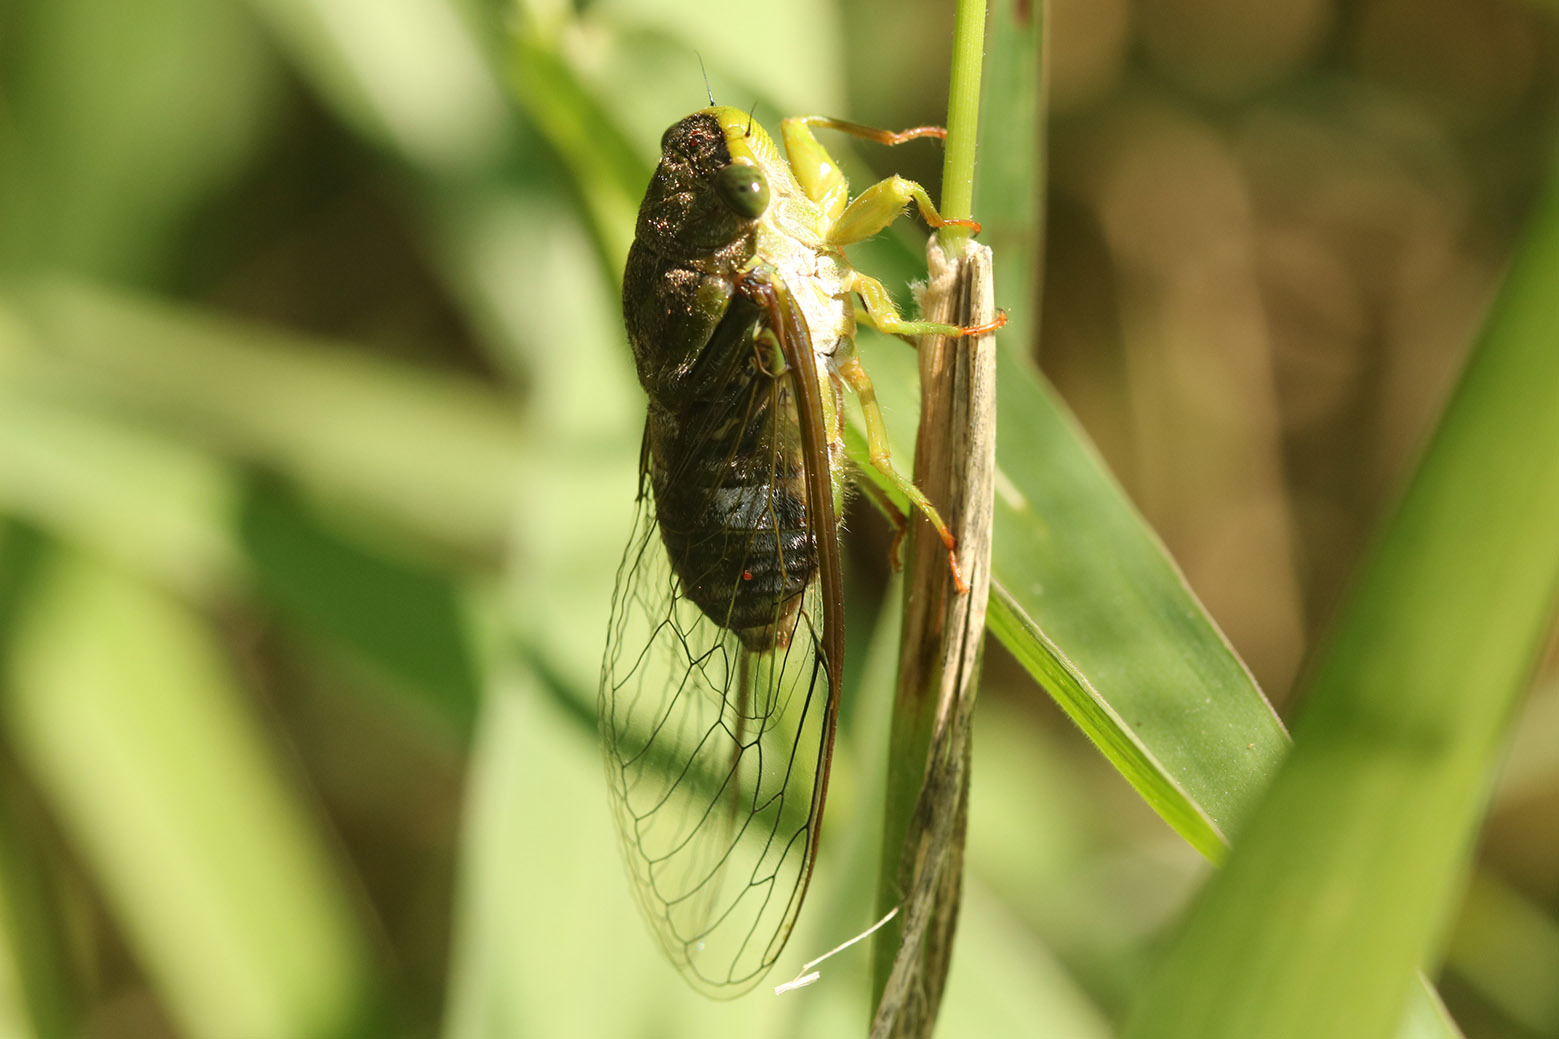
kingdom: Animalia
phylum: Arthropoda
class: Insecta
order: Hemiptera
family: Cicadidae
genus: Acanthoventris
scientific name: Acanthoventris drewseni
